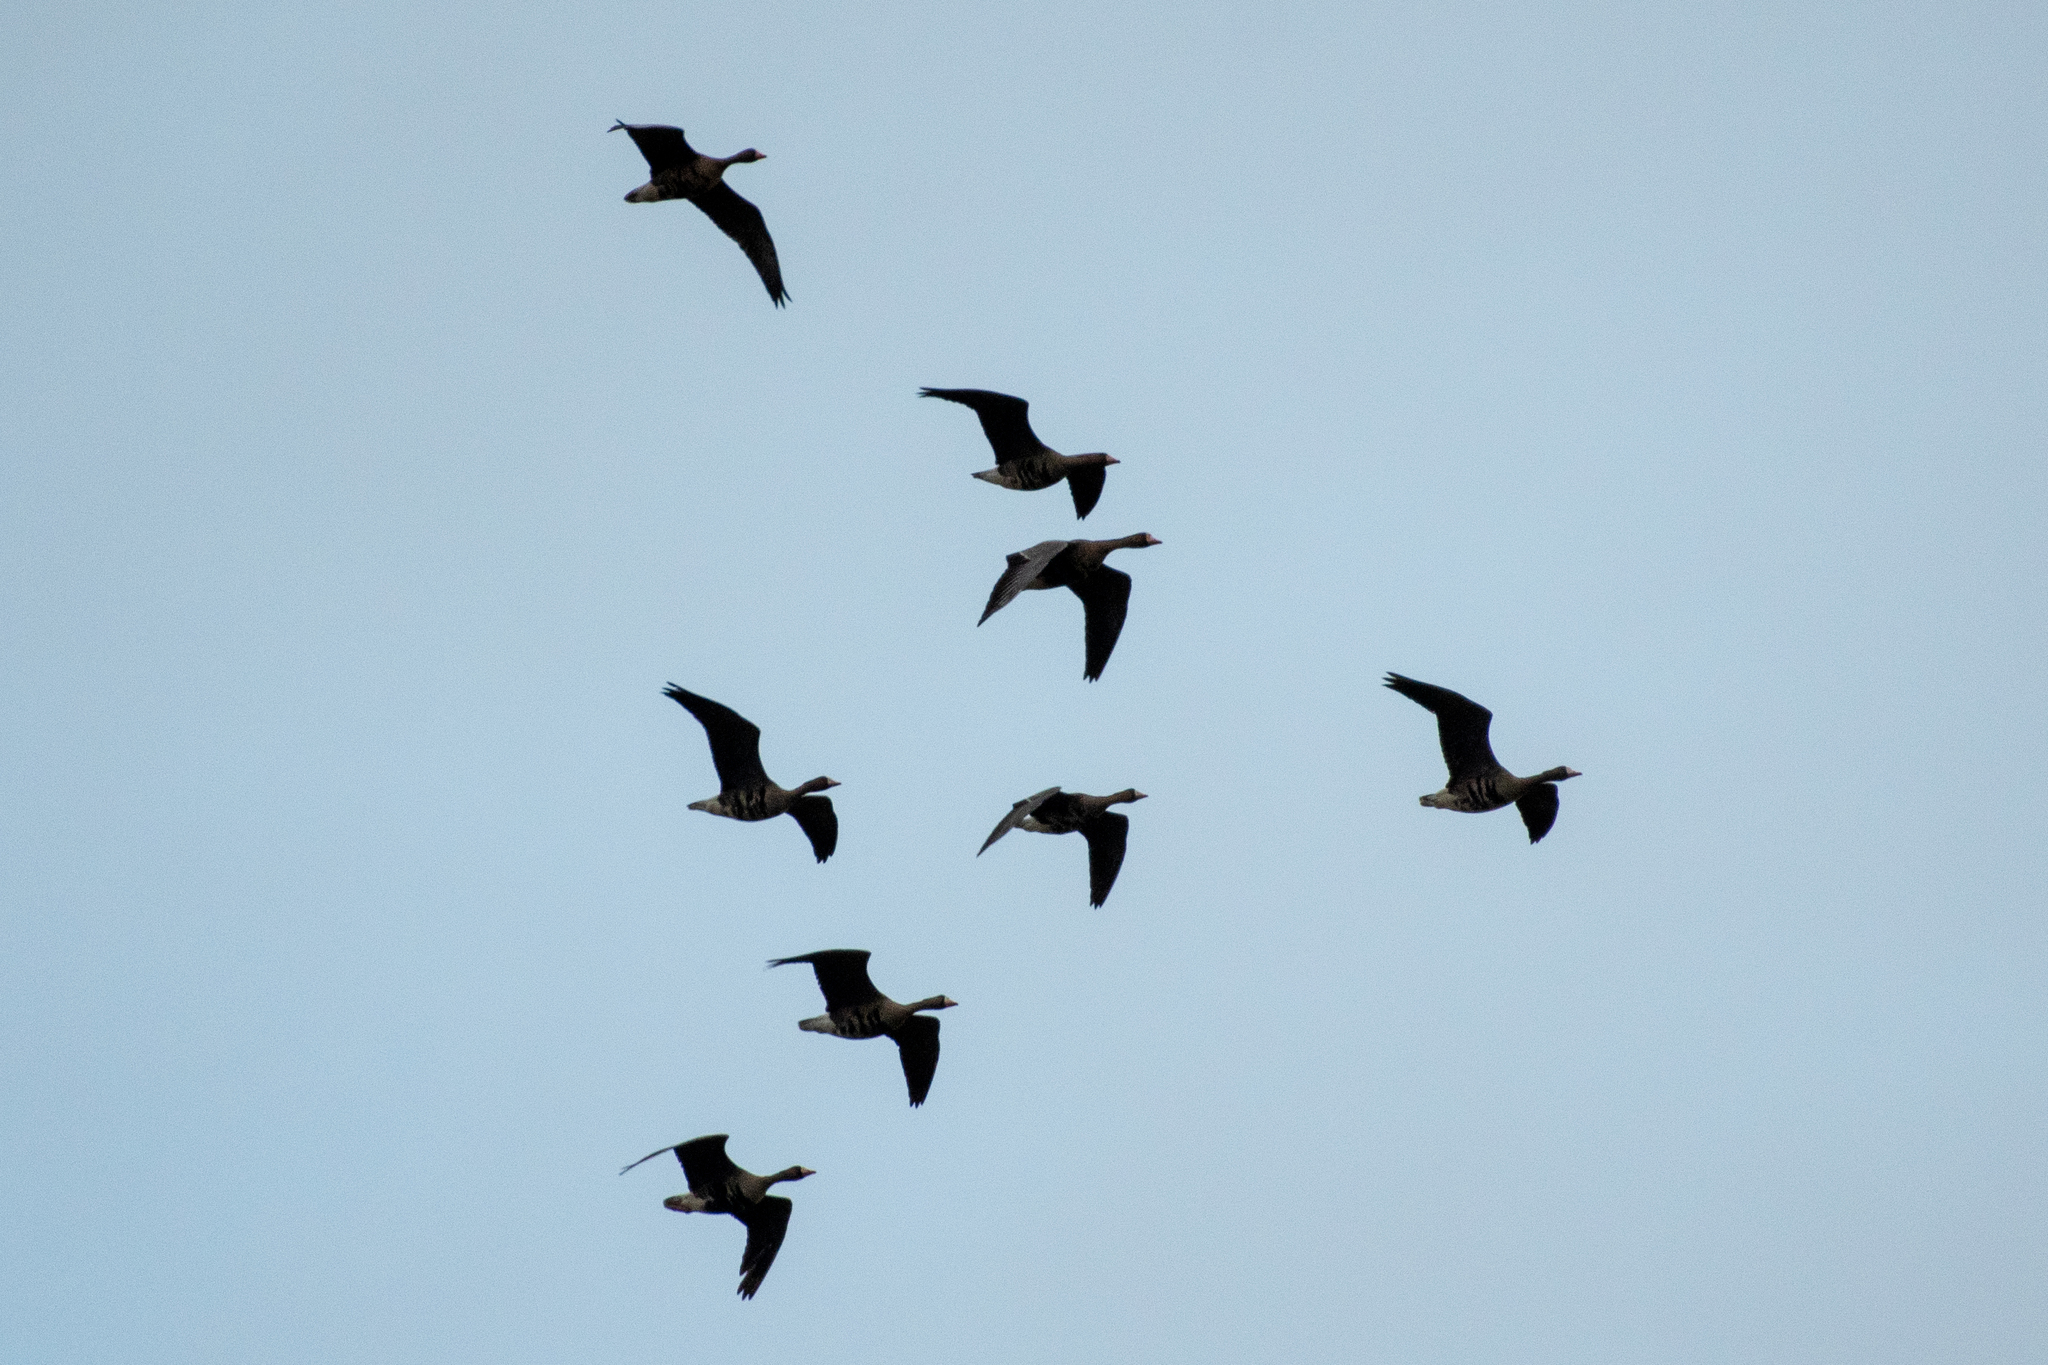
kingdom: Animalia
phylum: Chordata
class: Aves
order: Anseriformes
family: Anatidae
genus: Anser
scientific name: Anser albifrons
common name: Greater white-fronted goose
